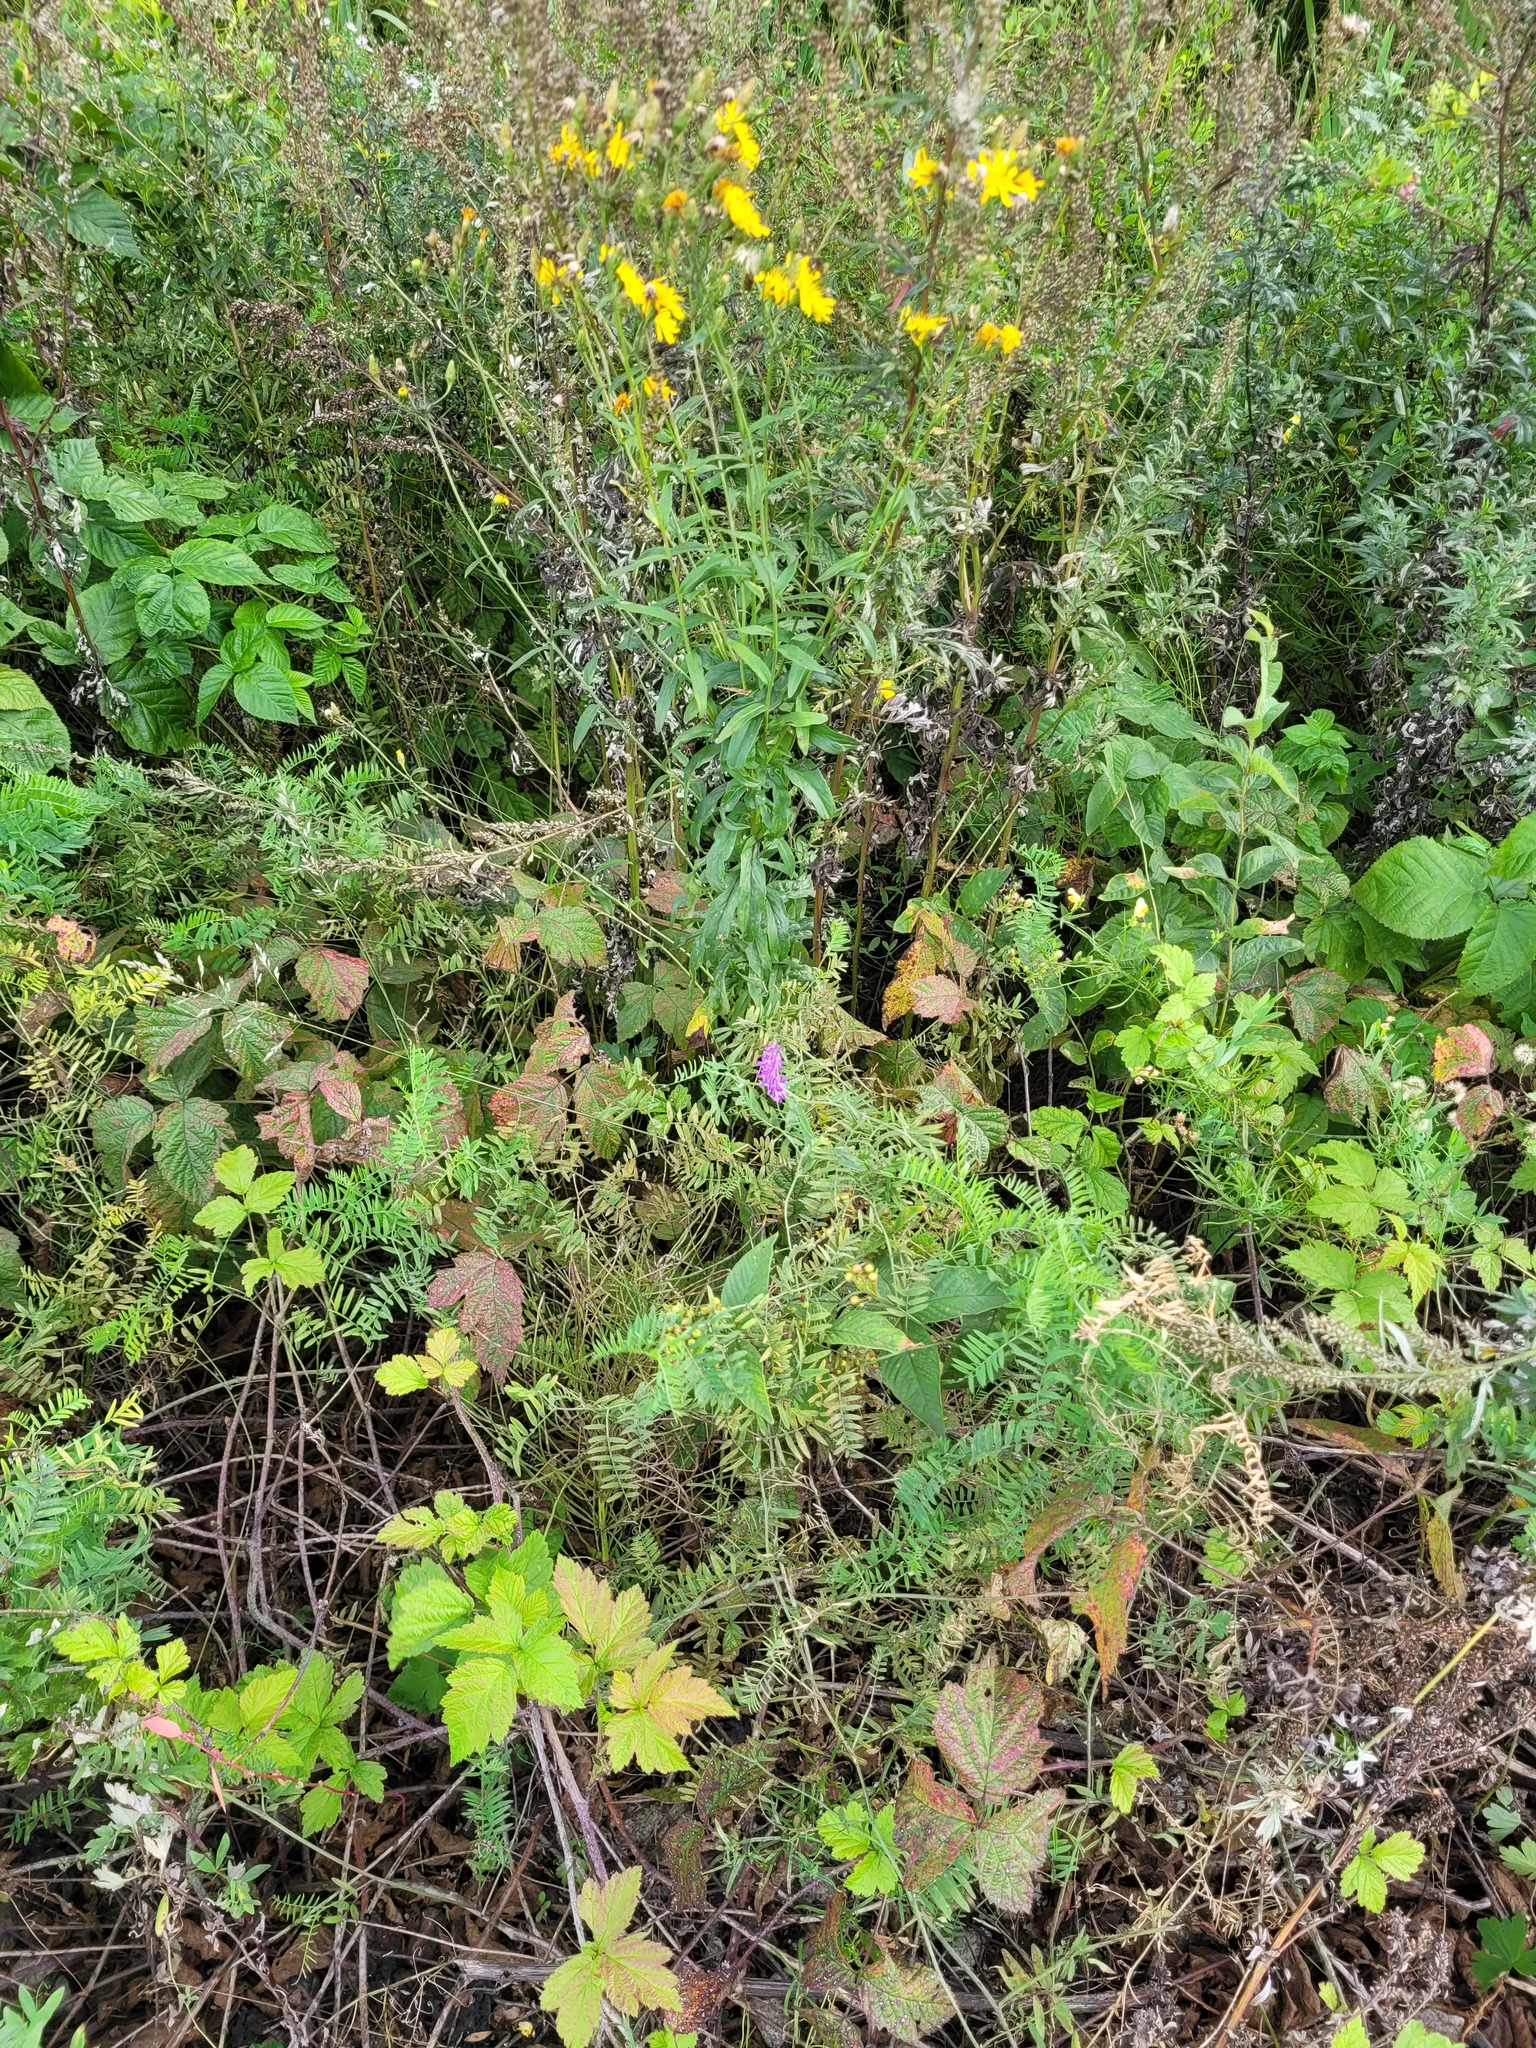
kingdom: Plantae
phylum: Tracheophyta
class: Magnoliopsida
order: Fabales
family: Fabaceae
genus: Vicia
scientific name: Vicia cracca
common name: Bird vetch
